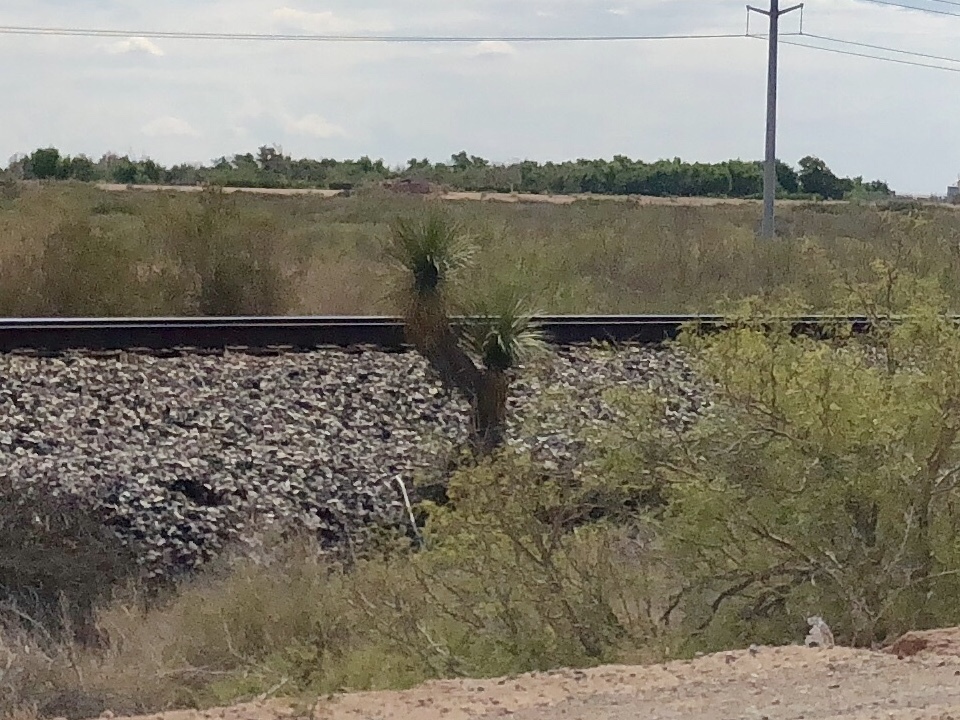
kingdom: Plantae
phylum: Tracheophyta
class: Liliopsida
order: Asparagales
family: Asparagaceae
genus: Yucca
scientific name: Yucca elata
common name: Palmella
